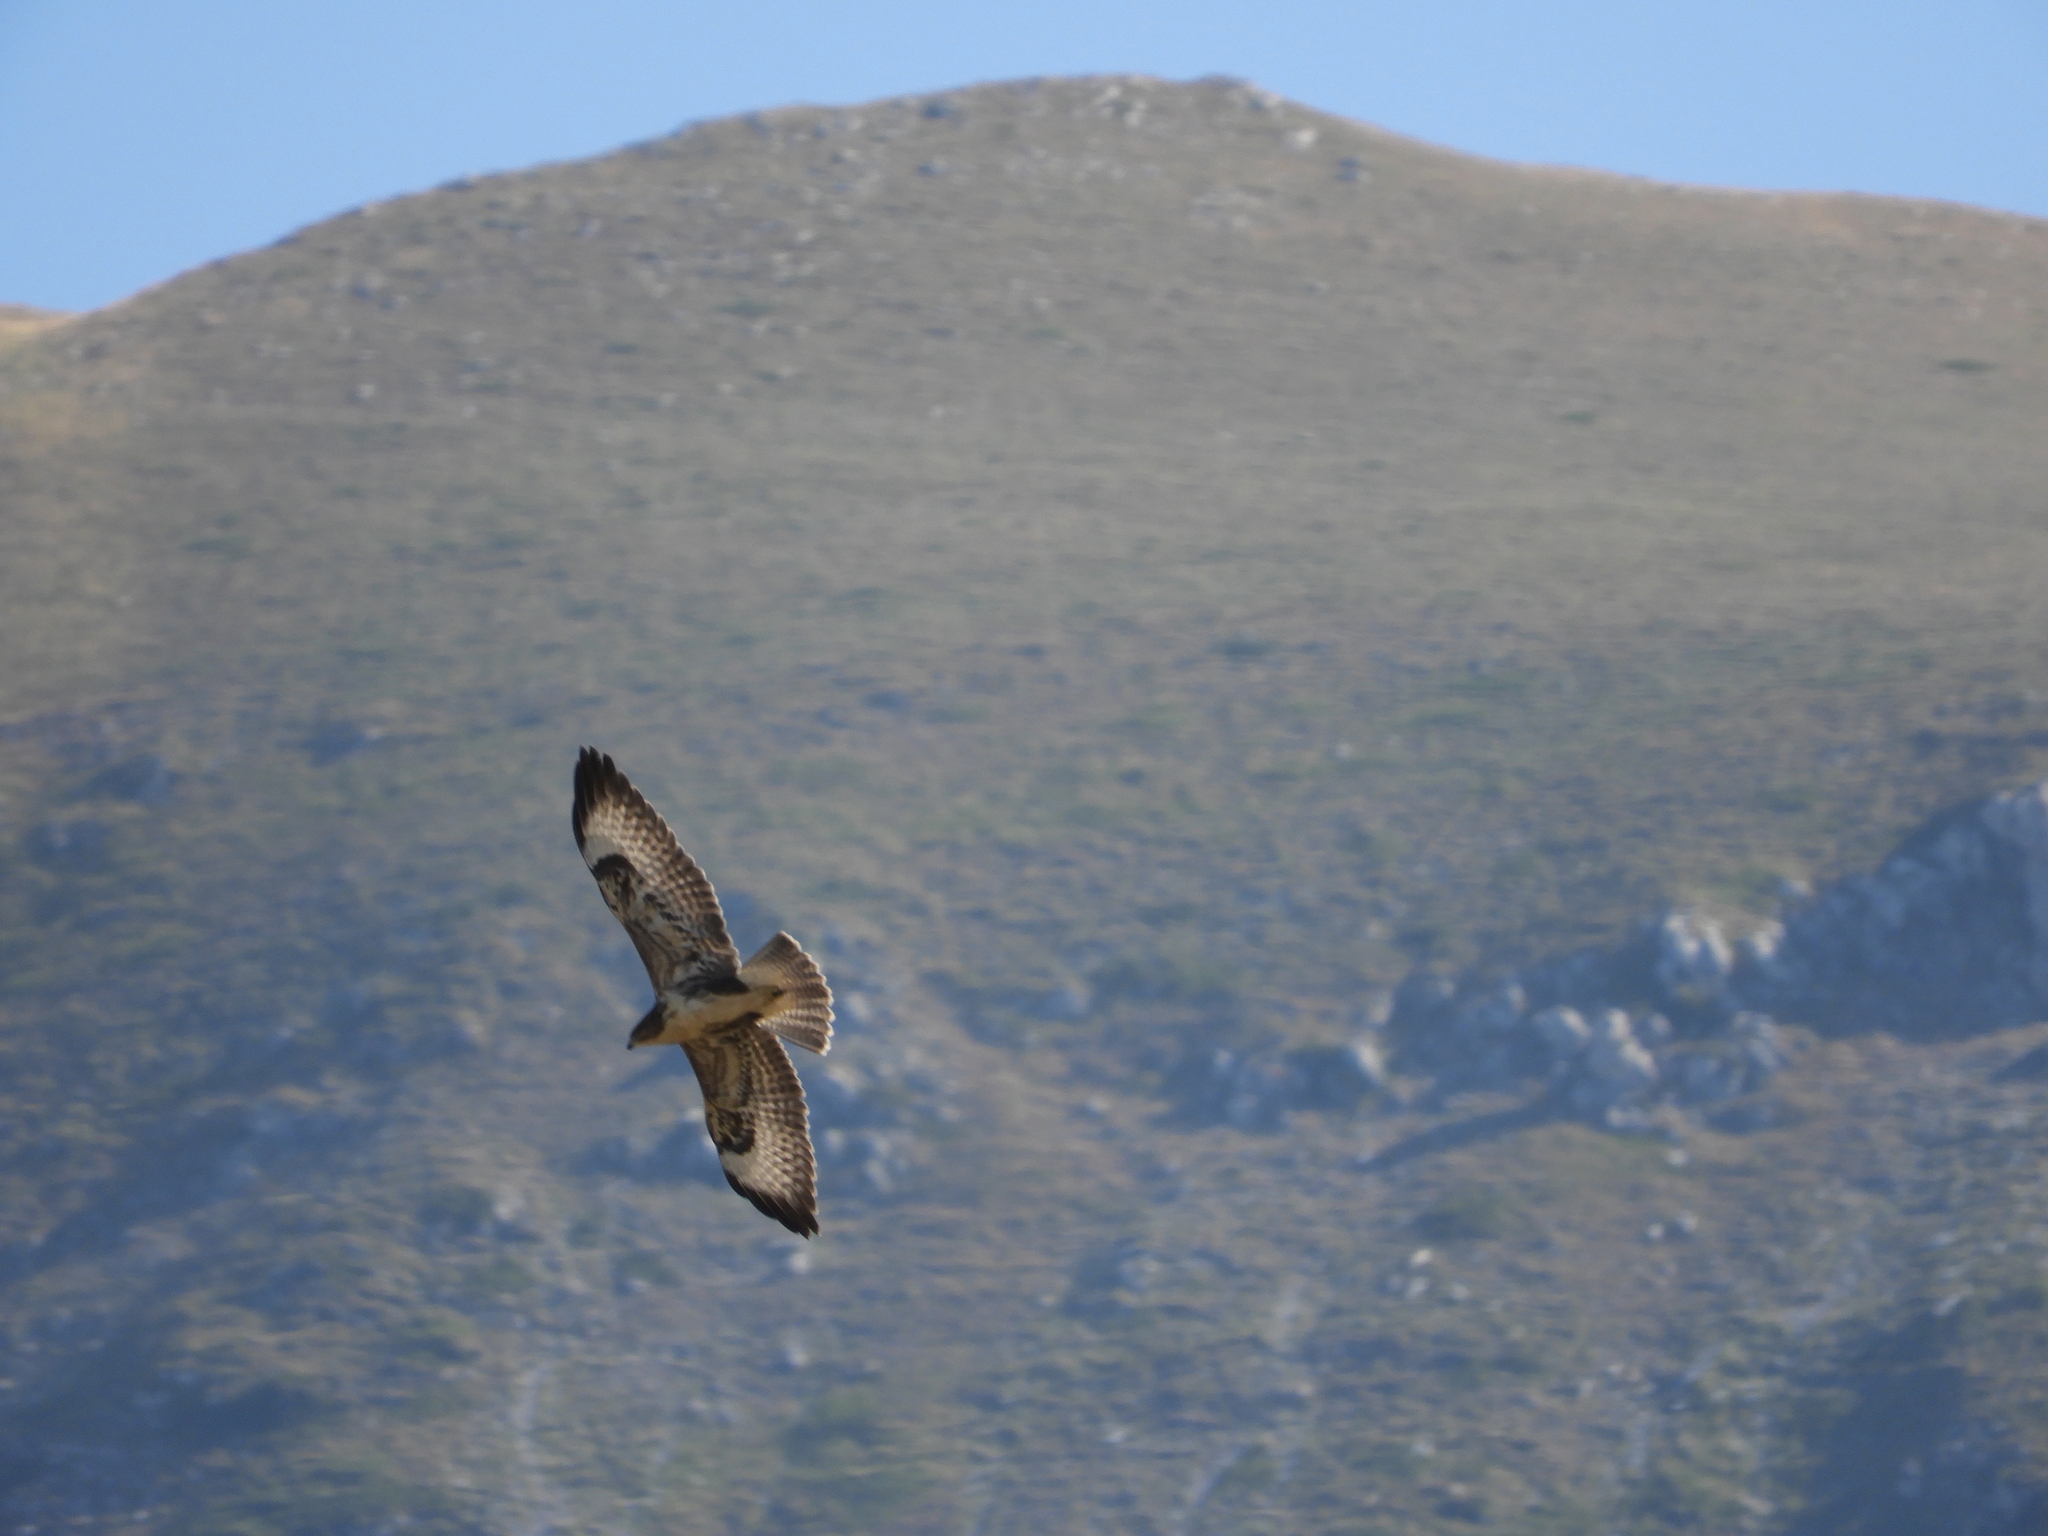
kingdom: Animalia
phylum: Chordata
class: Aves
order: Accipitriformes
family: Accipitridae
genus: Buteo
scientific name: Buteo buteo
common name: Common buzzard
